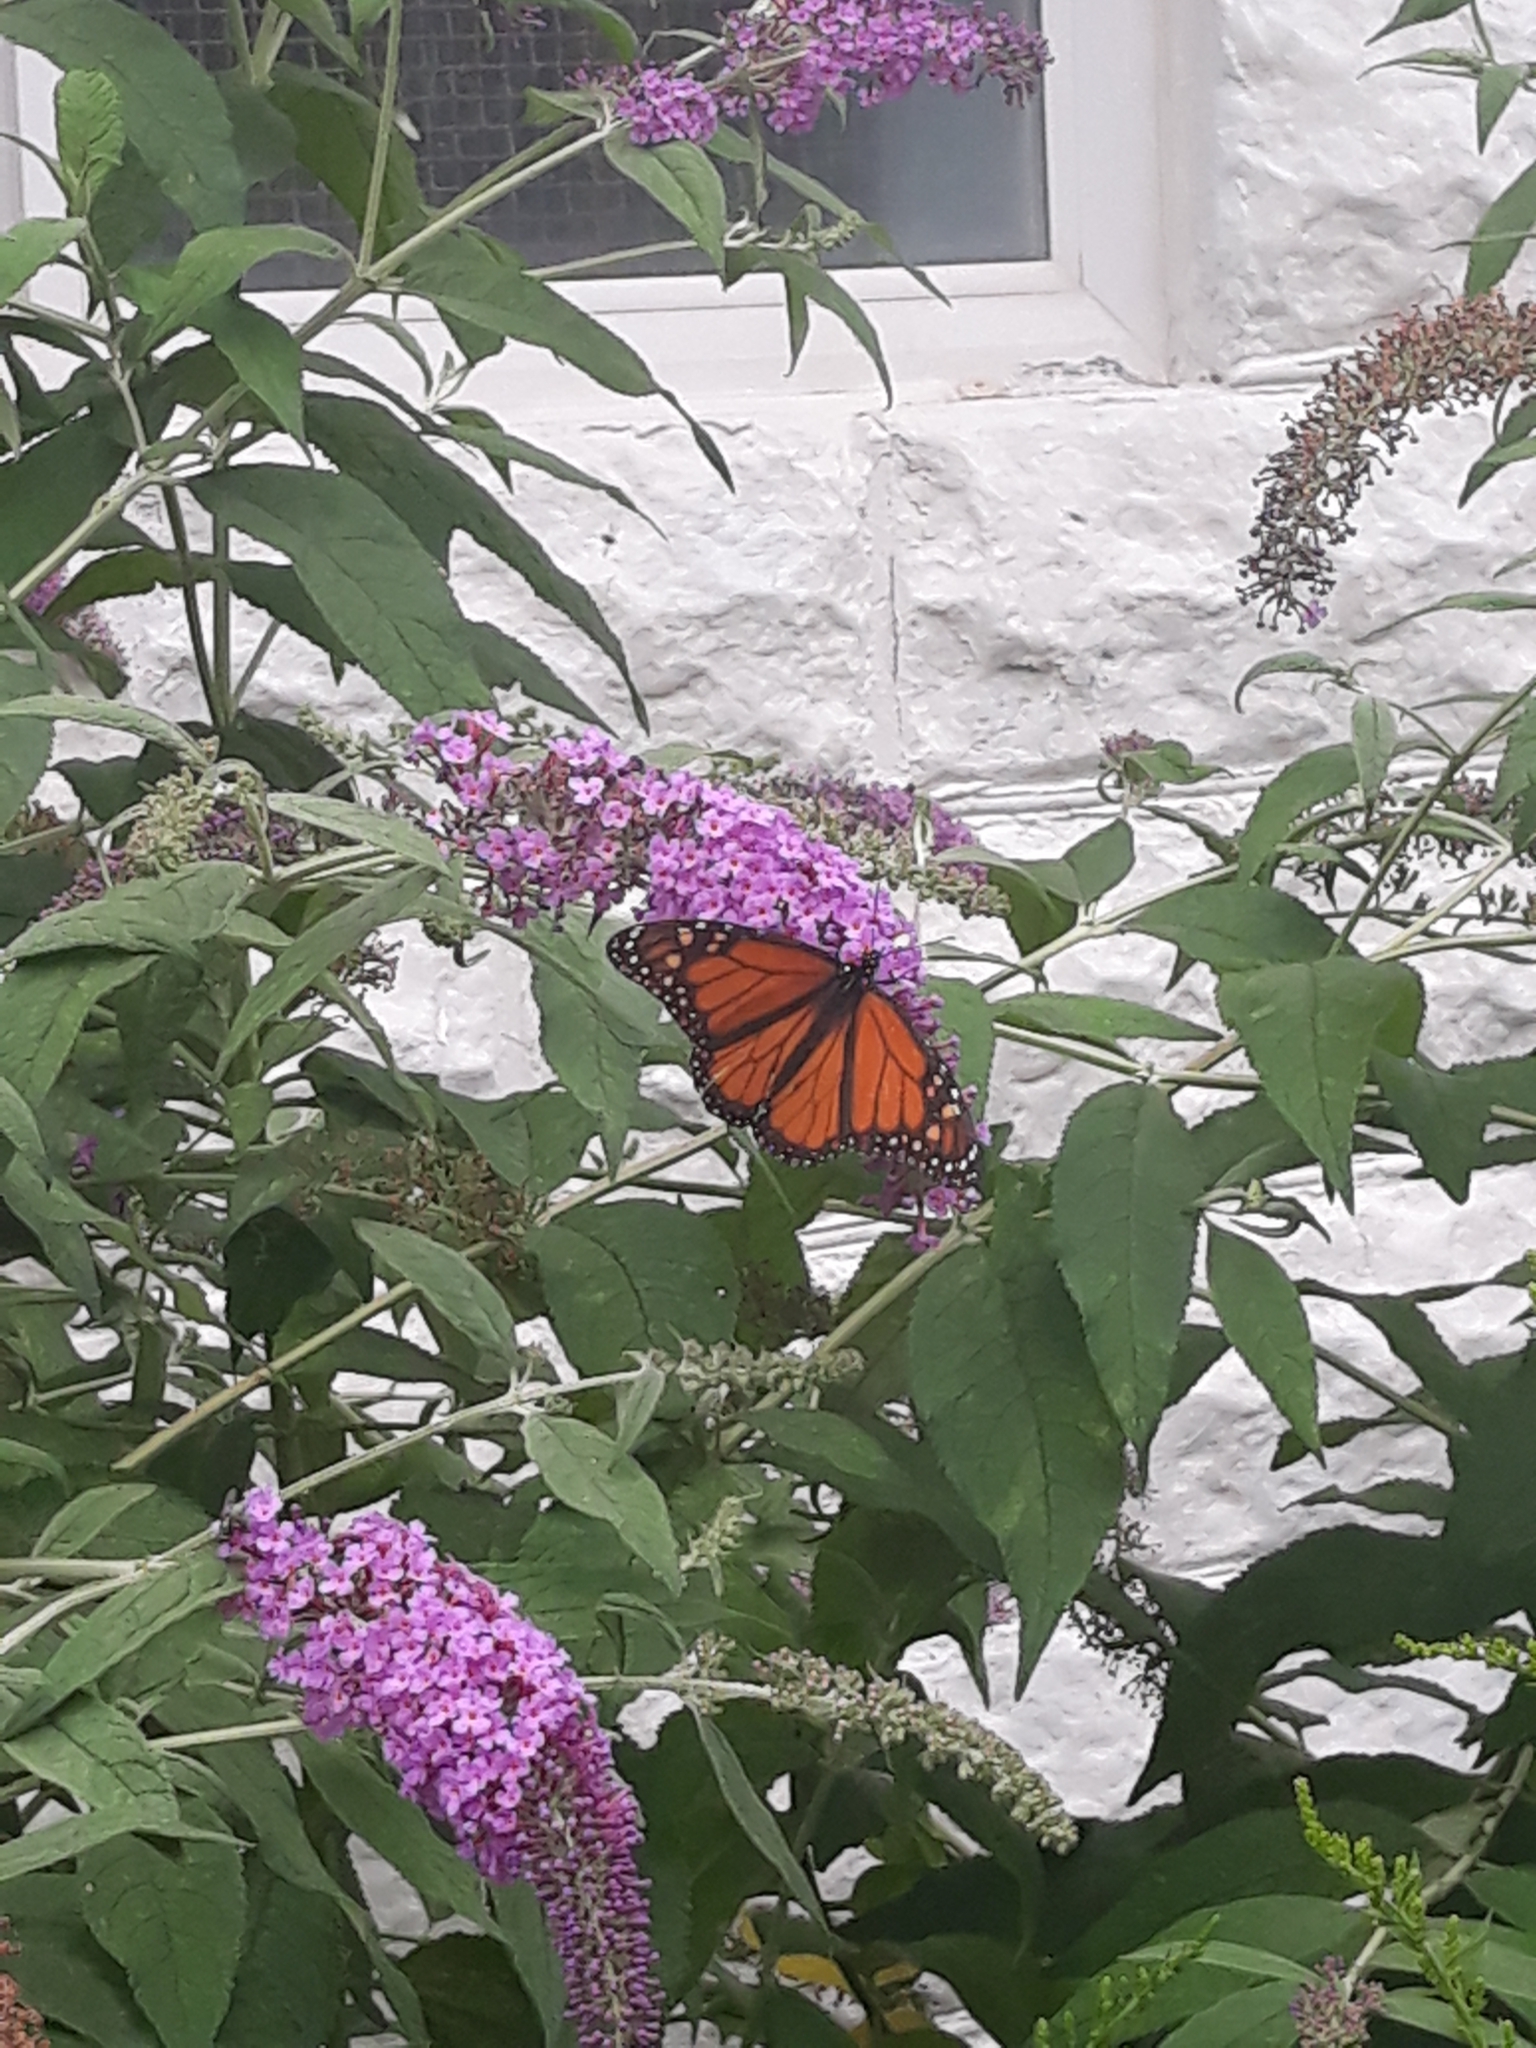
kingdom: Animalia
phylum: Arthropoda
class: Insecta
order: Lepidoptera
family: Nymphalidae
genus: Danaus
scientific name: Danaus plexippus
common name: Monarch
